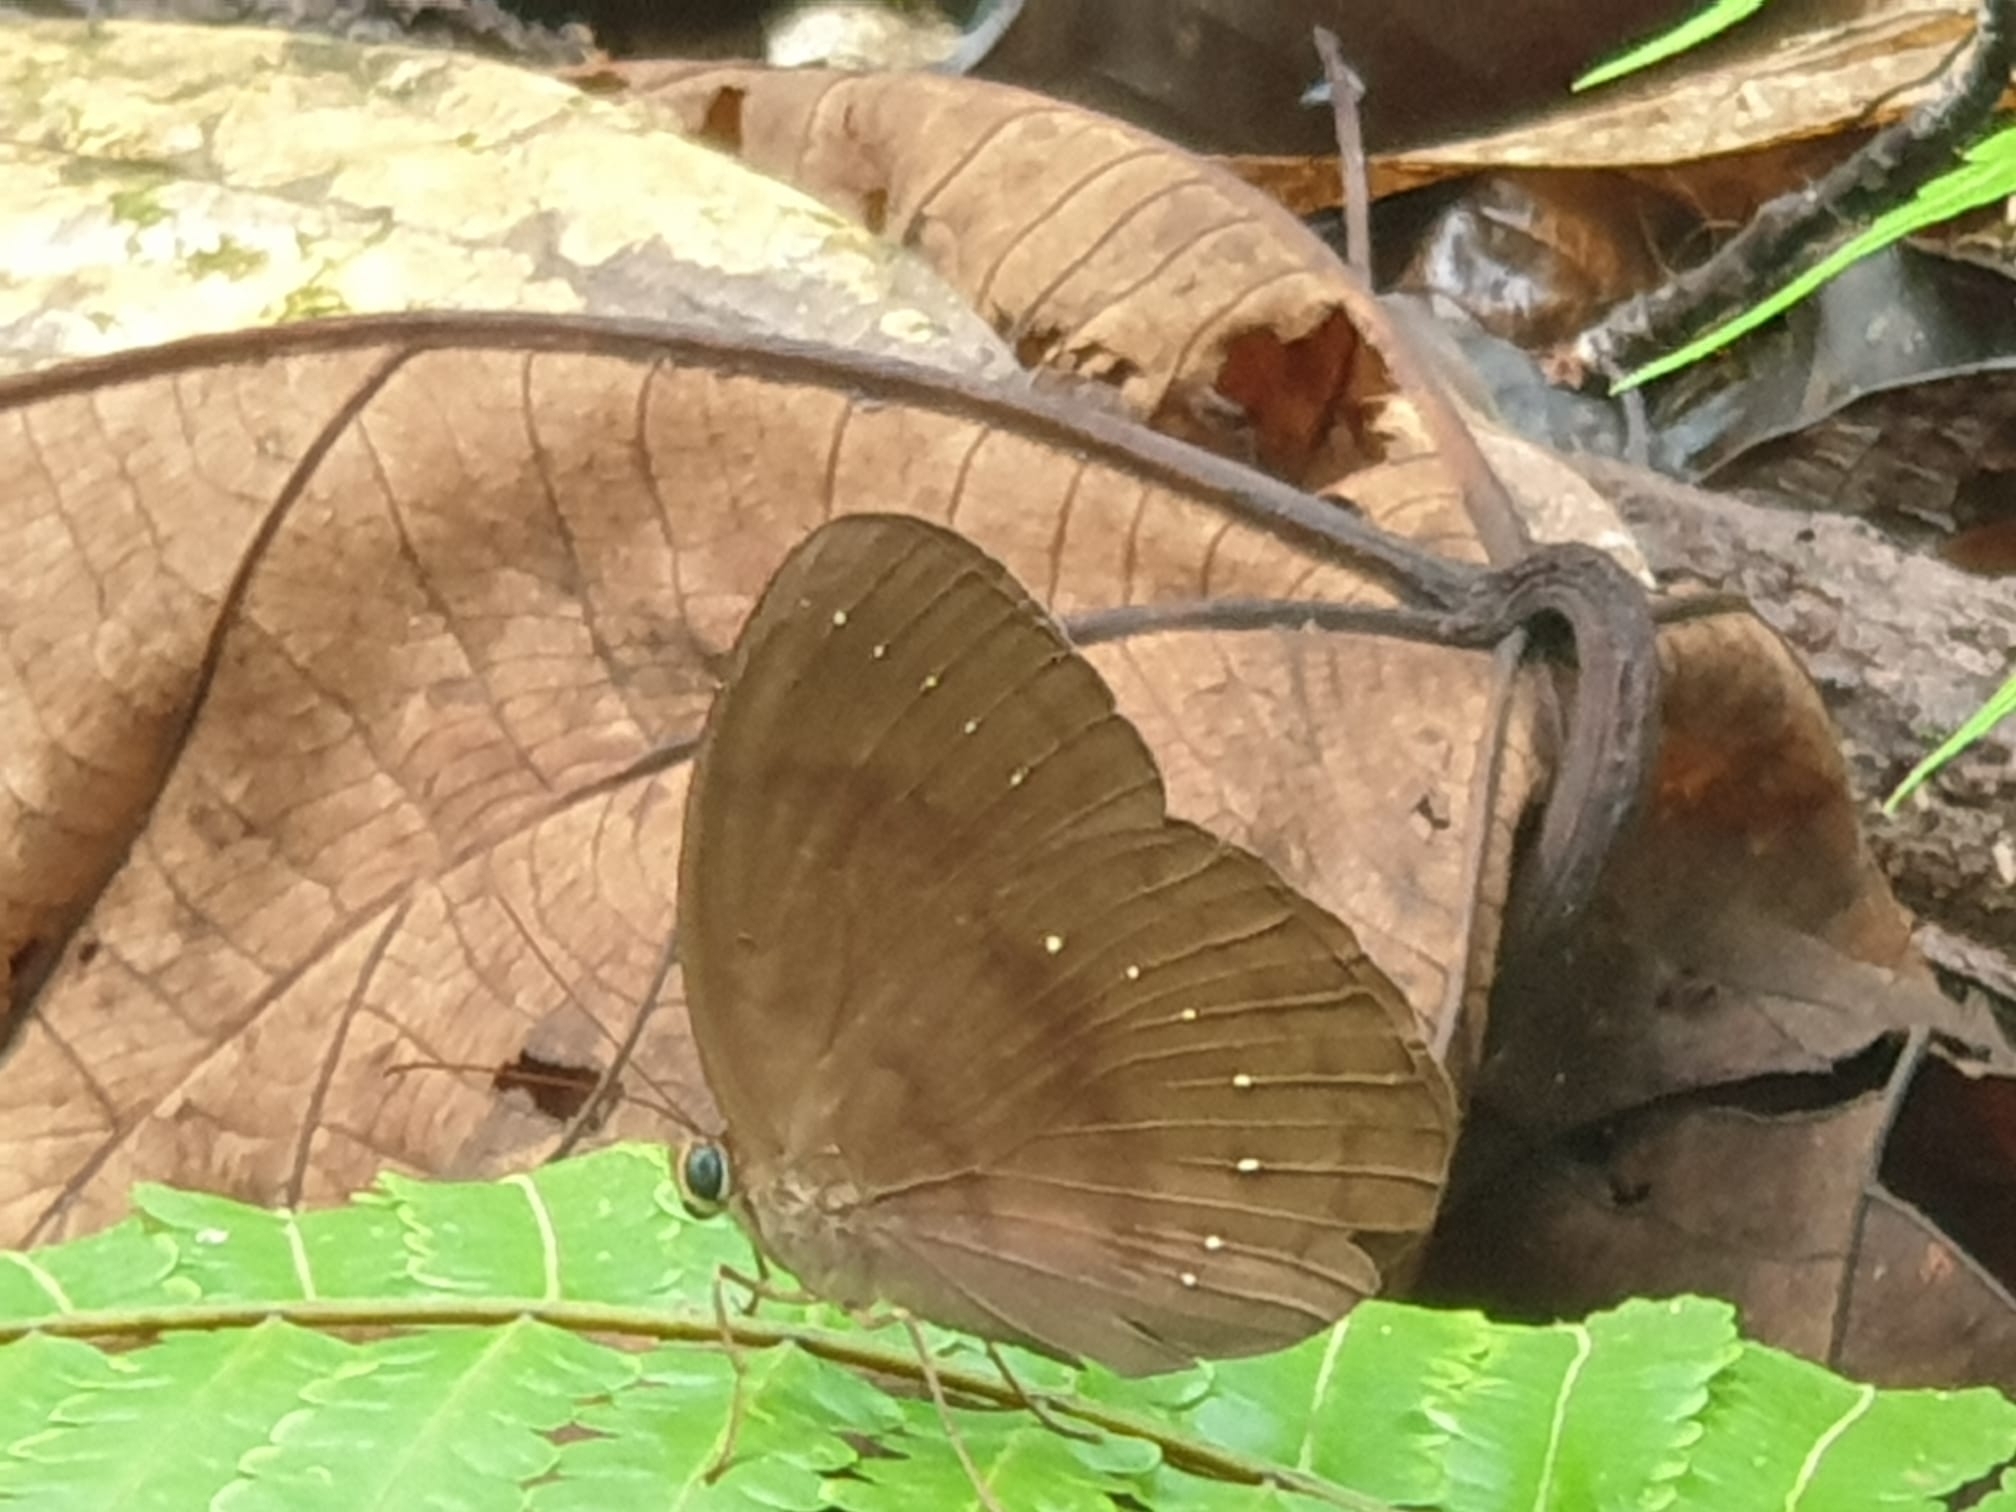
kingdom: Animalia
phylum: Arthropoda
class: Insecta
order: Lepidoptera
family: Nymphalidae
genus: Faunis
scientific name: Faunis canens
